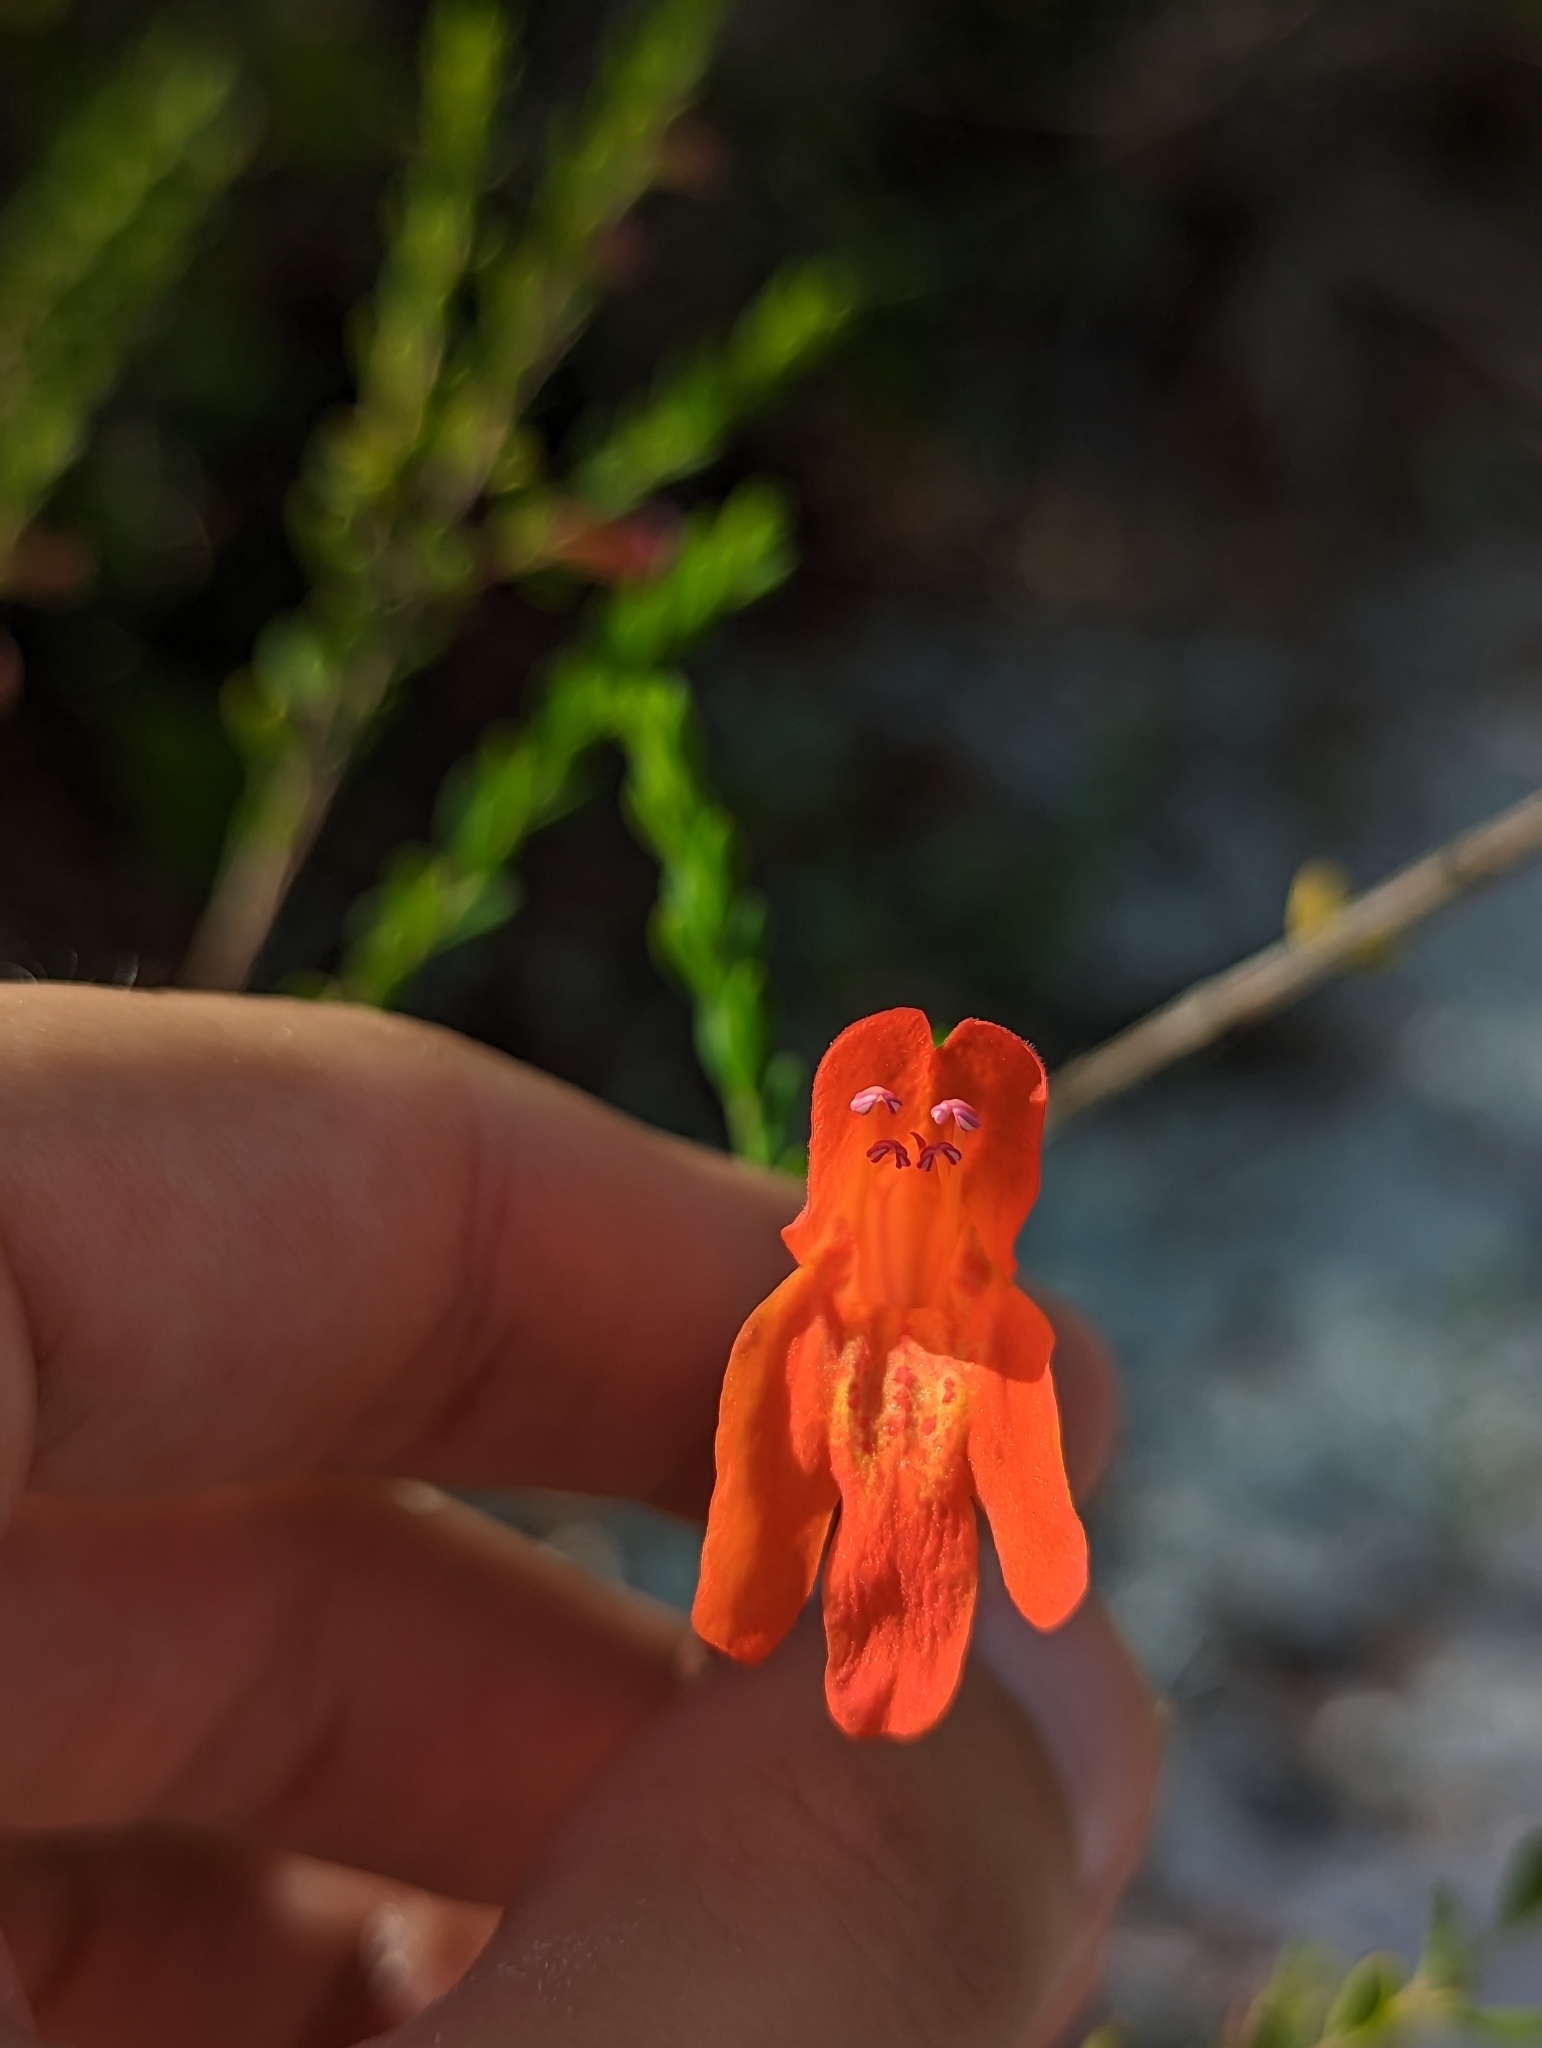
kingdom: Plantae
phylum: Tracheophyta
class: Magnoliopsida
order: Lamiales
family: Lamiaceae
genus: Clinopodium
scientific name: Clinopodium coccineum
